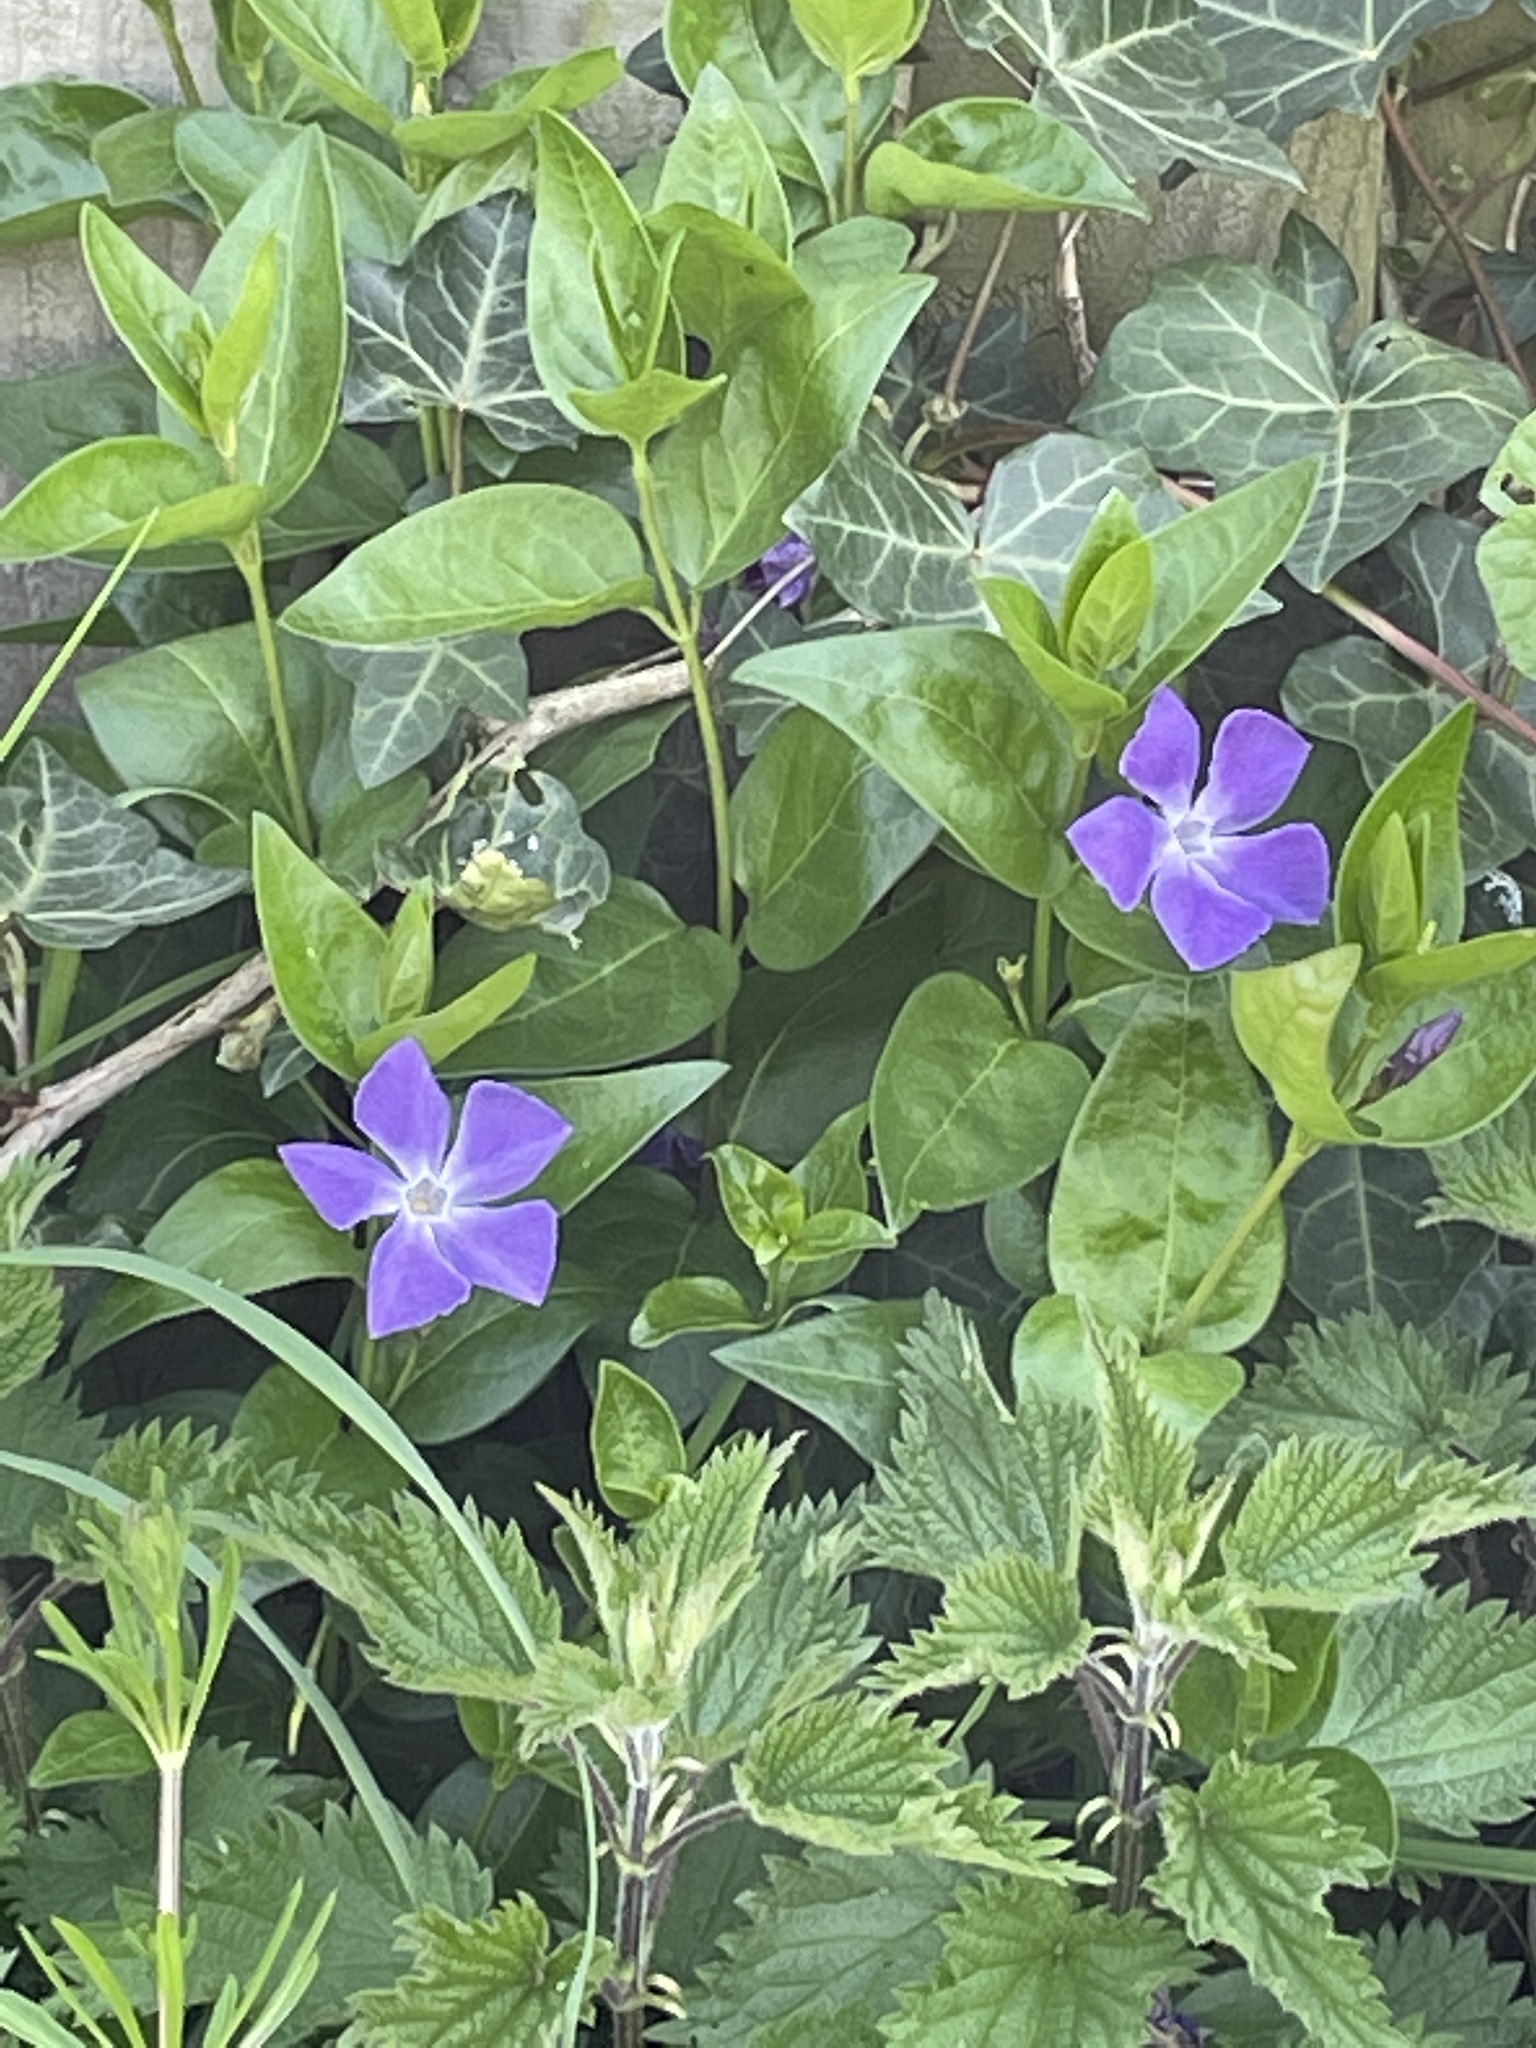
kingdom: Plantae
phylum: Tracheophyta
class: Magnoliopsida
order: Gentianales
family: Apocynaceae
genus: Vinca
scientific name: Vinca major
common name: Greater periwinkle
